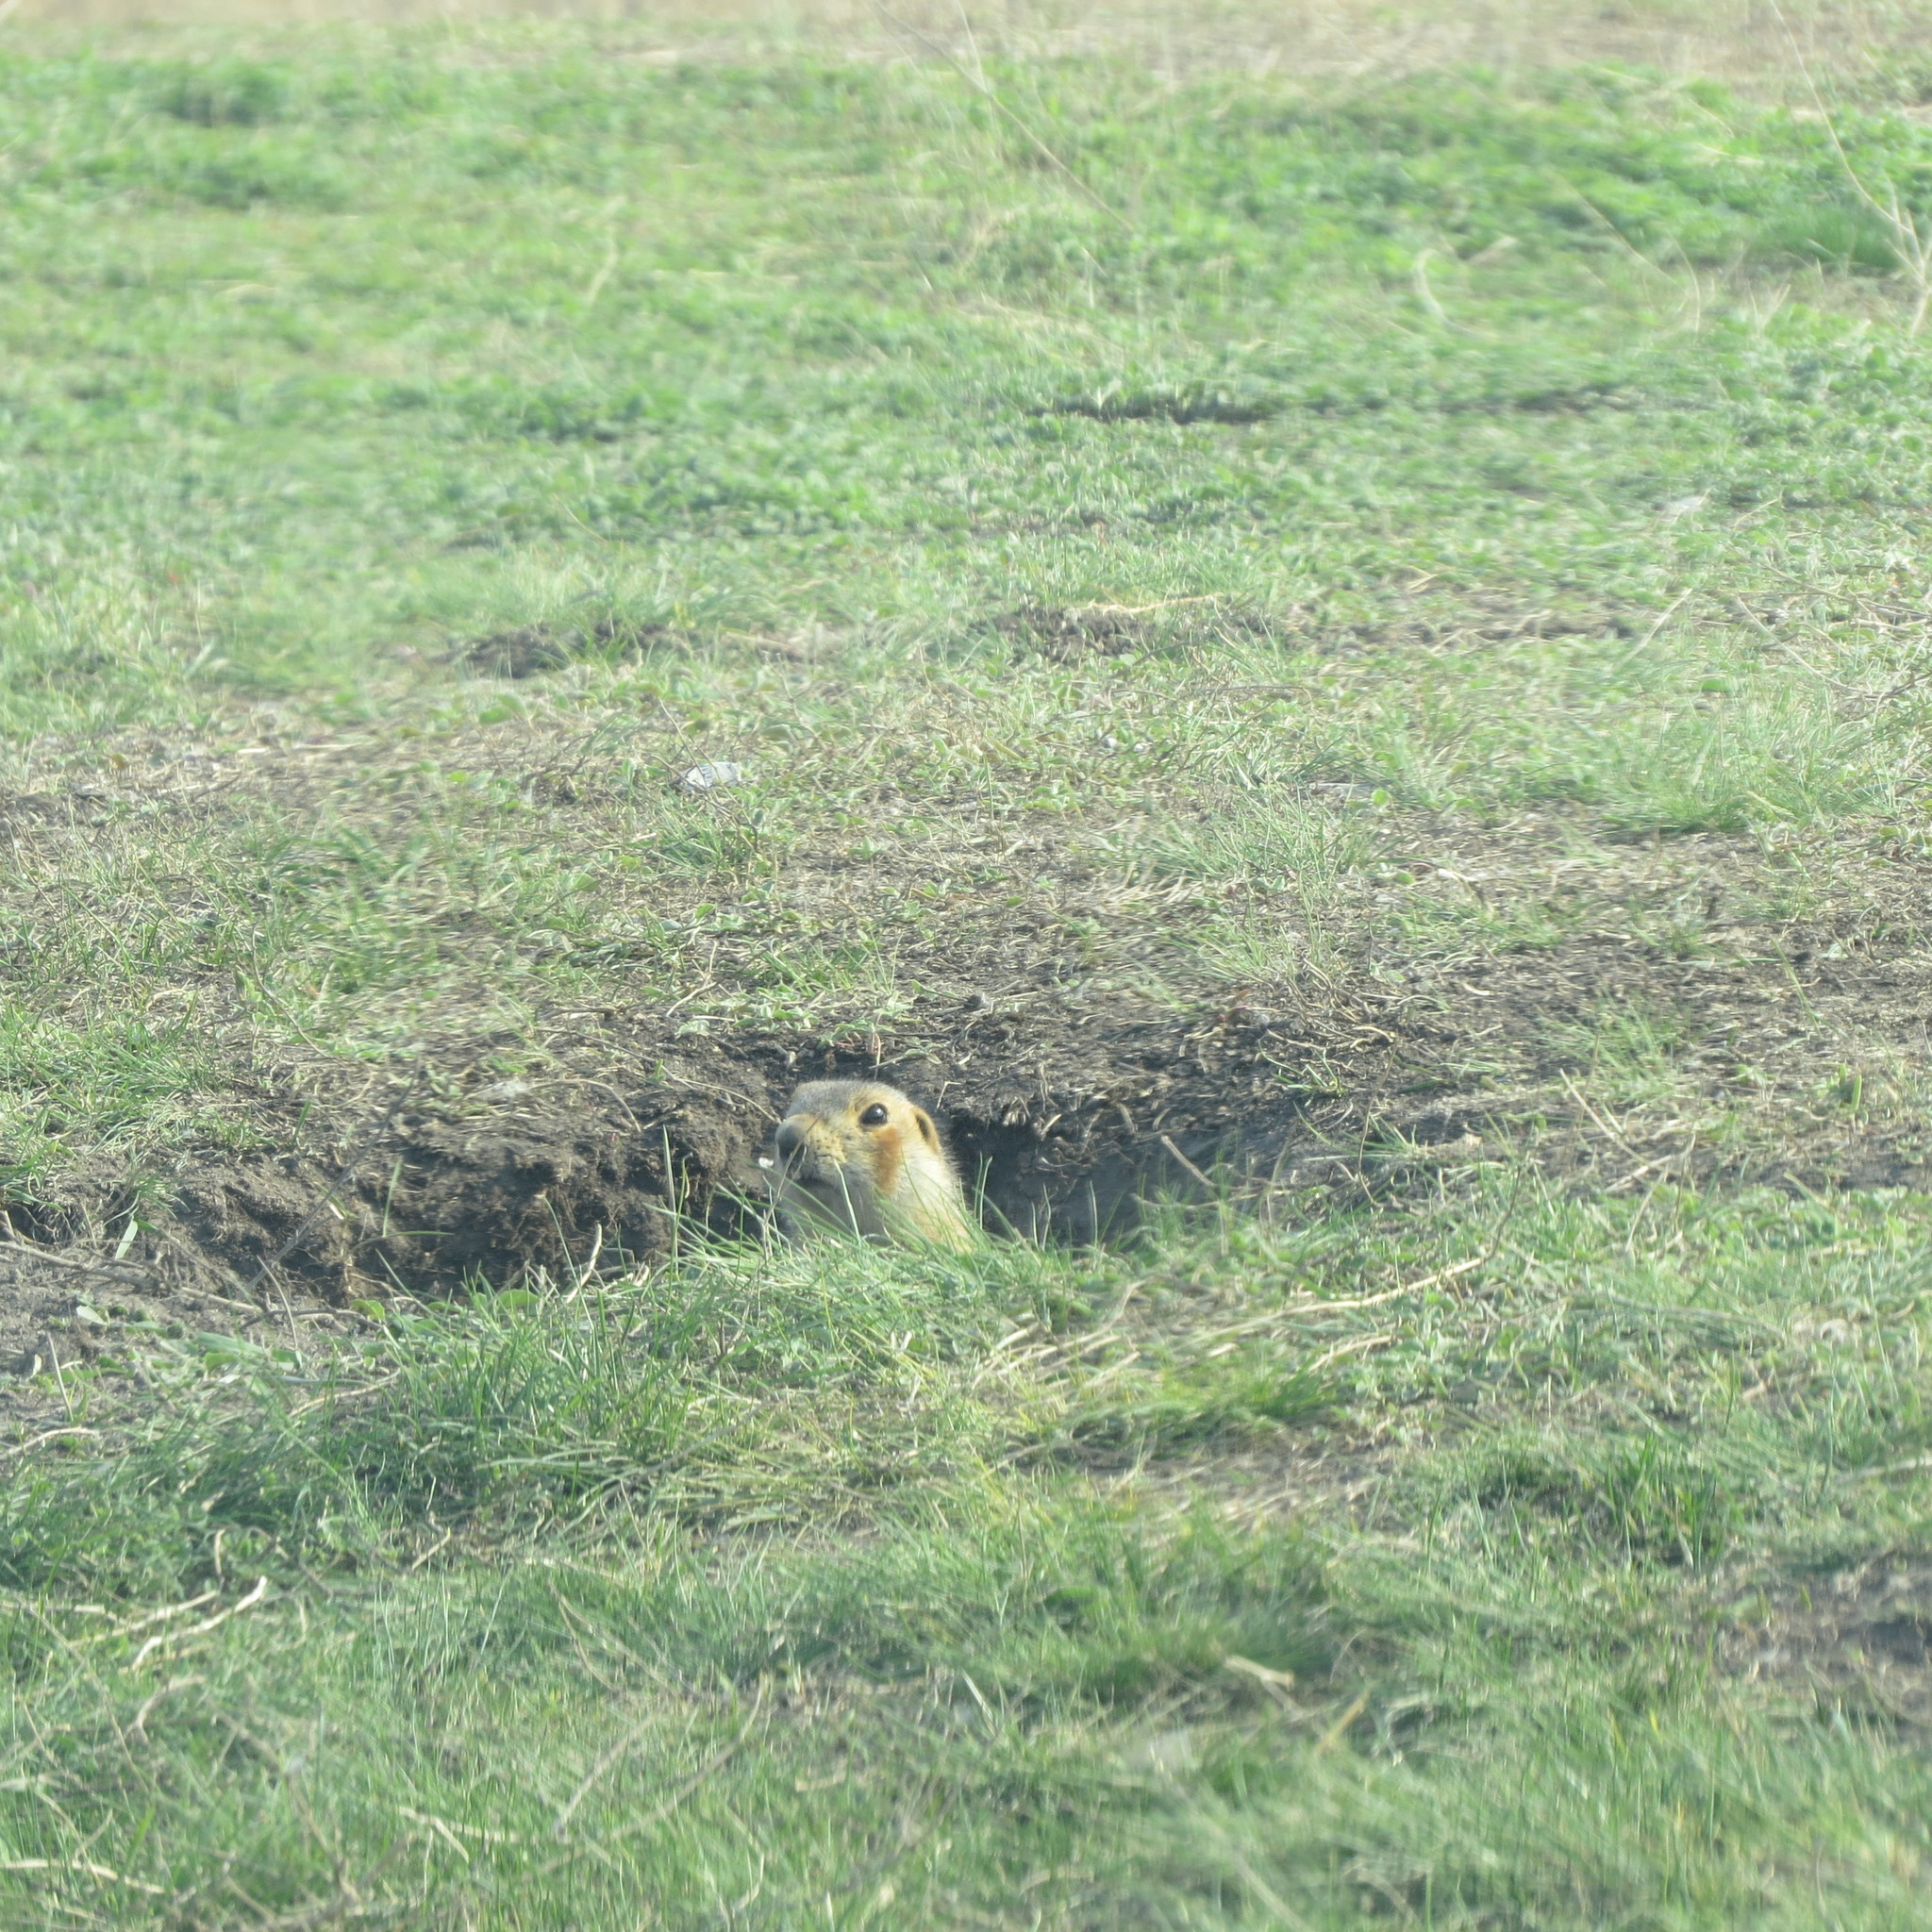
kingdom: Animalia
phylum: Chordata
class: Mammalia
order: Rodentia
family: Sciuridae
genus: Spermophilus
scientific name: Spermophilus major
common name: Russet ground squirrel
